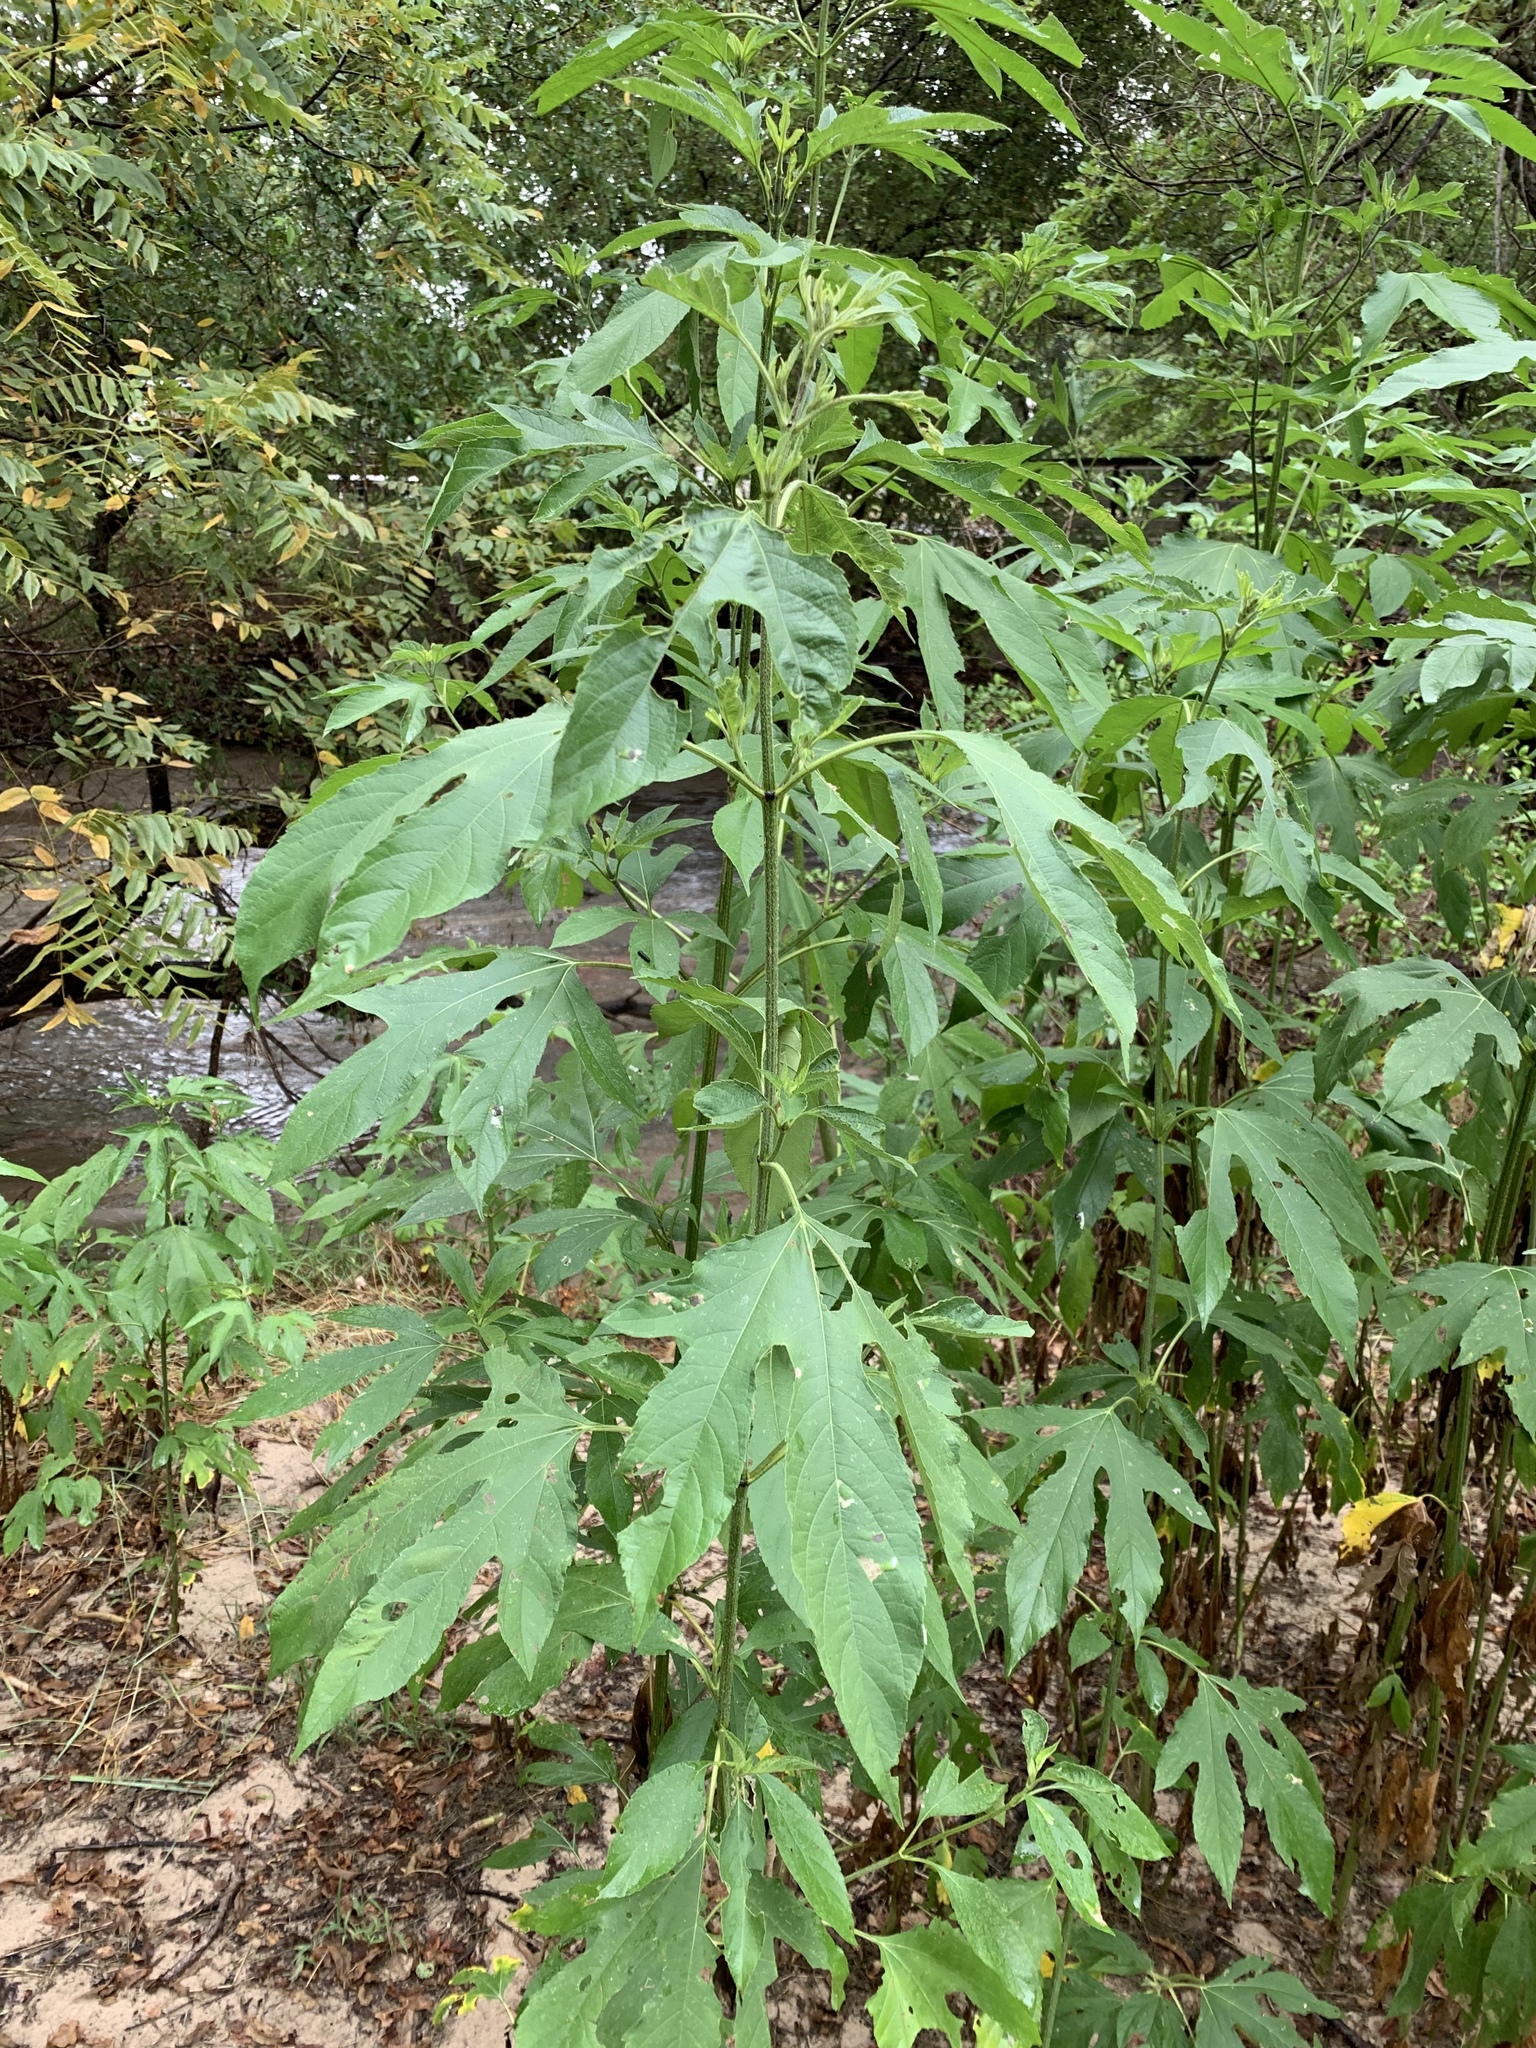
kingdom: Plantae
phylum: Tracheophyta
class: Magnoliopsida
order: Asterales
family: Asteraceae
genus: Ambrosia
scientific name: Ambrosia trifida
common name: Giant ragweed
